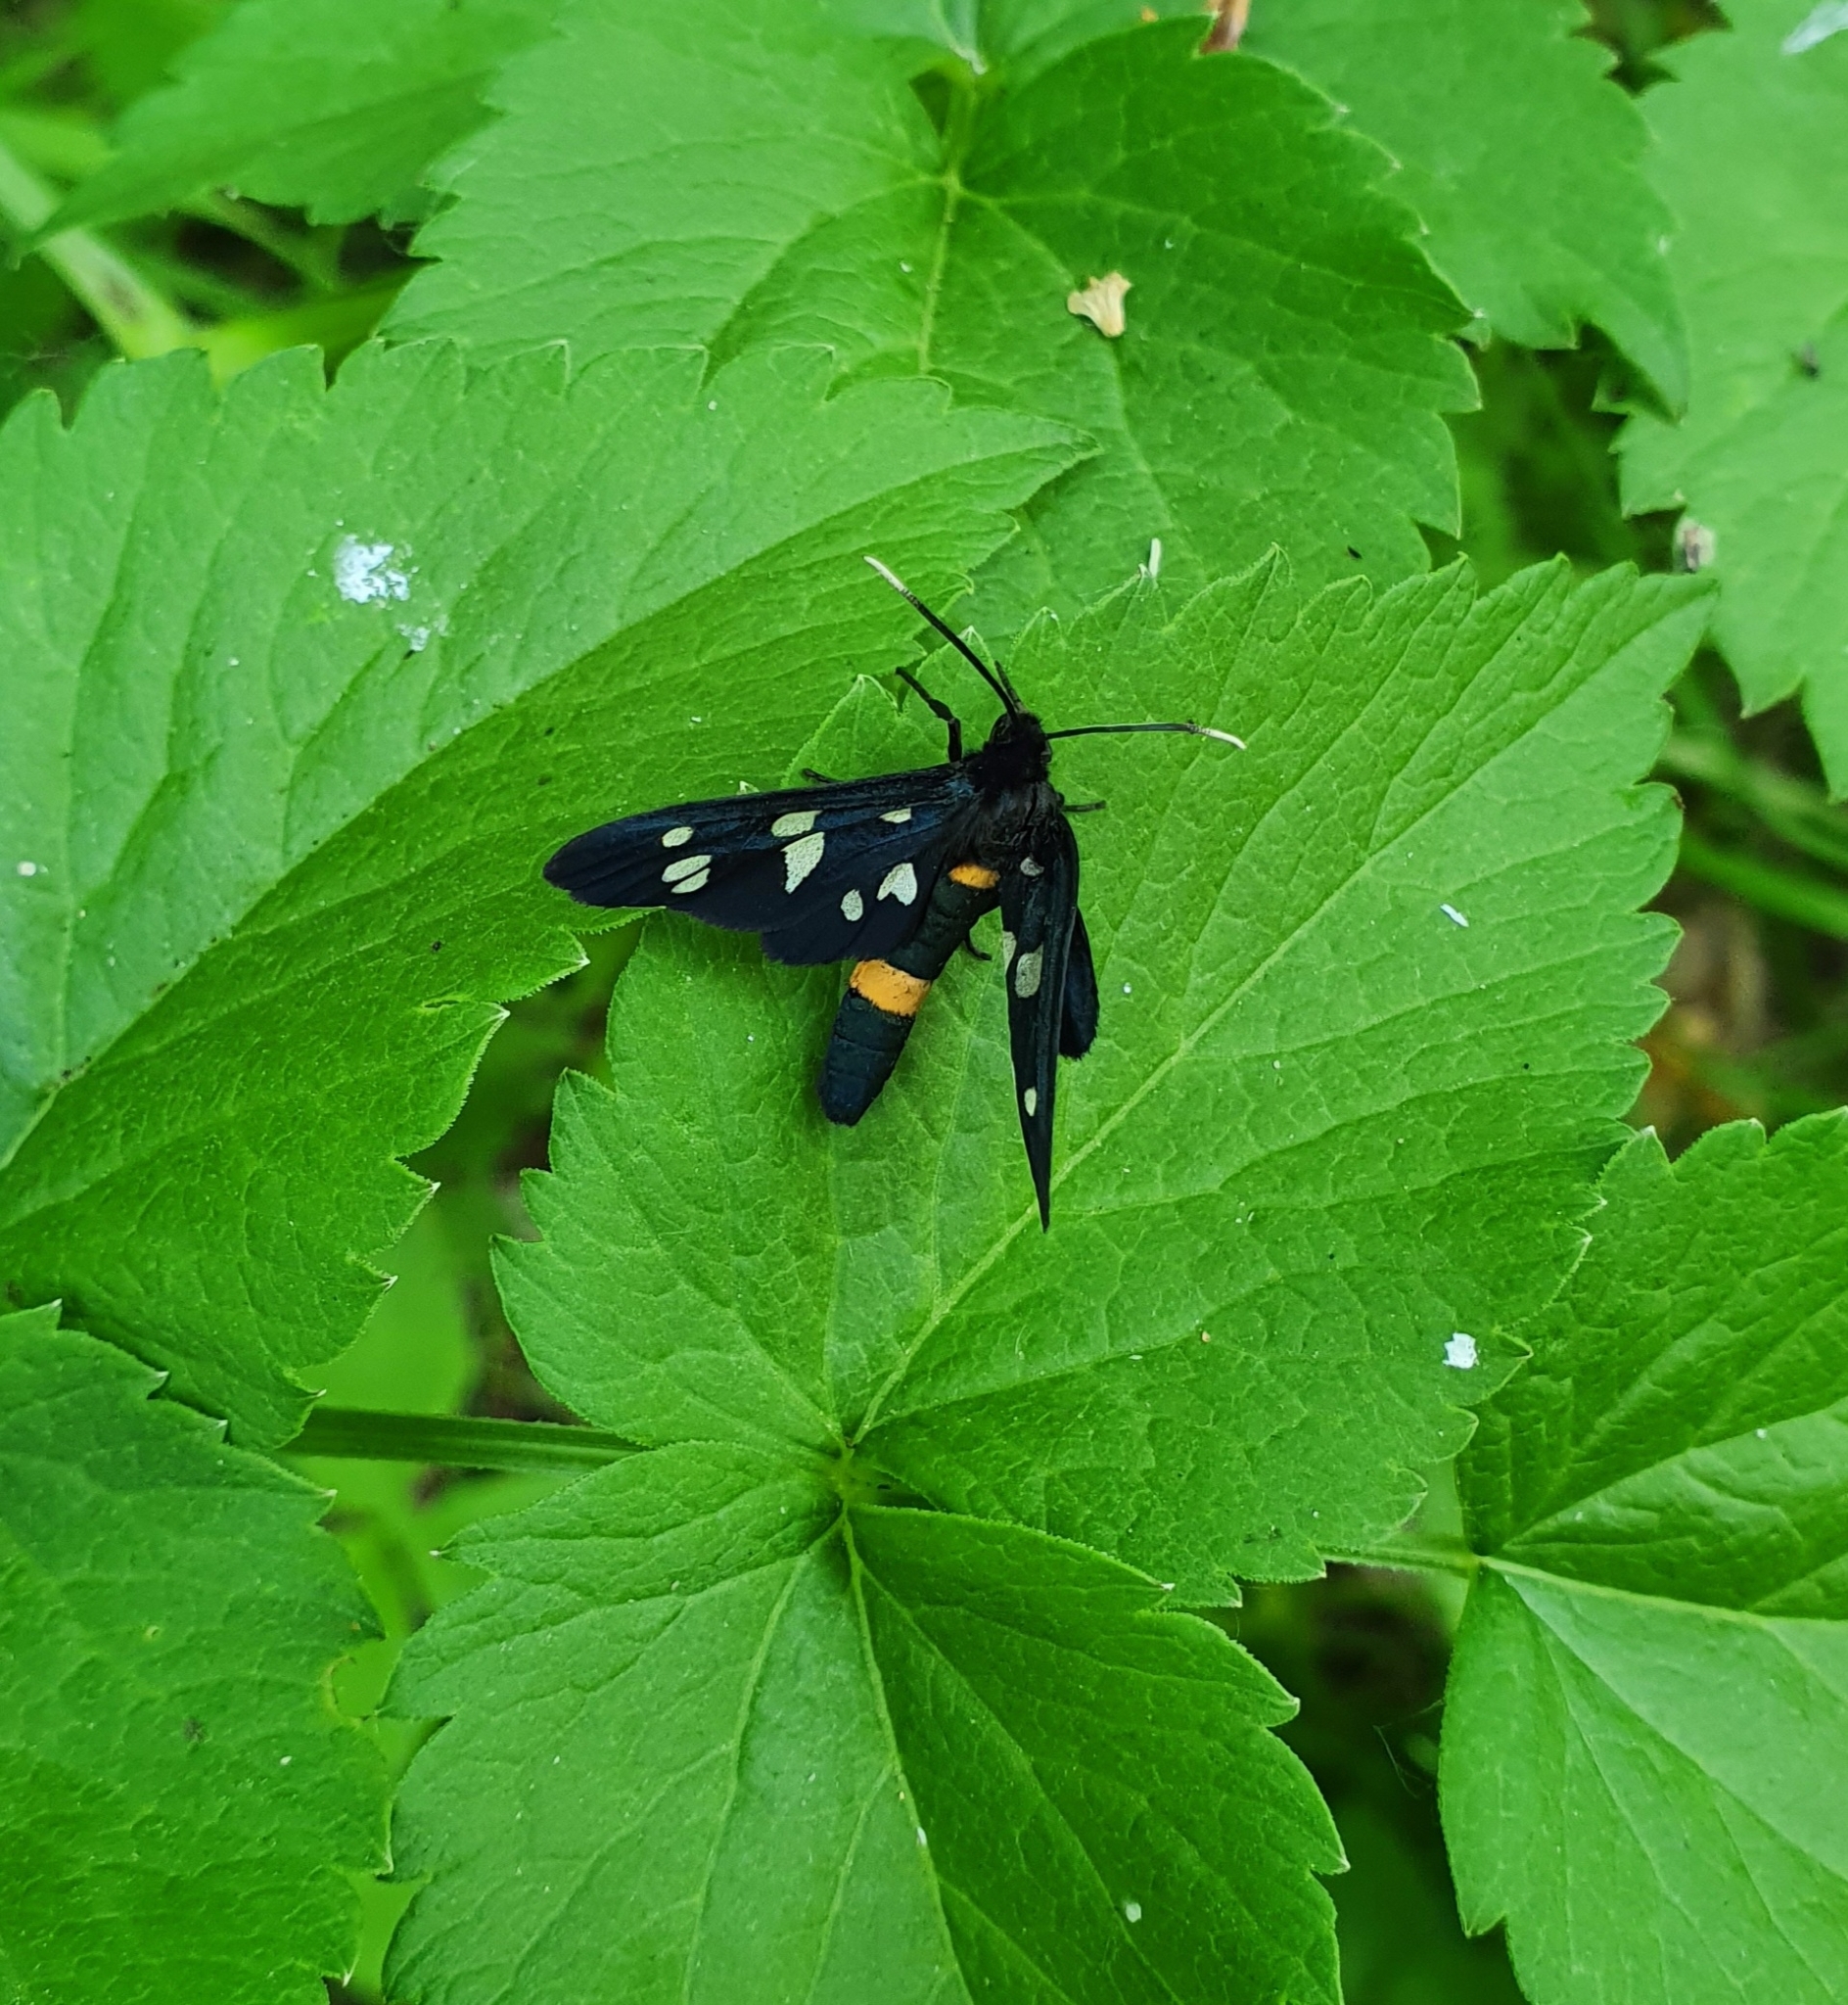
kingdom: Animalia
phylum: Arthropoda
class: Insecta
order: Lepidoptera
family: Erebidae
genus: Amata
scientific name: Amata nigricornis
